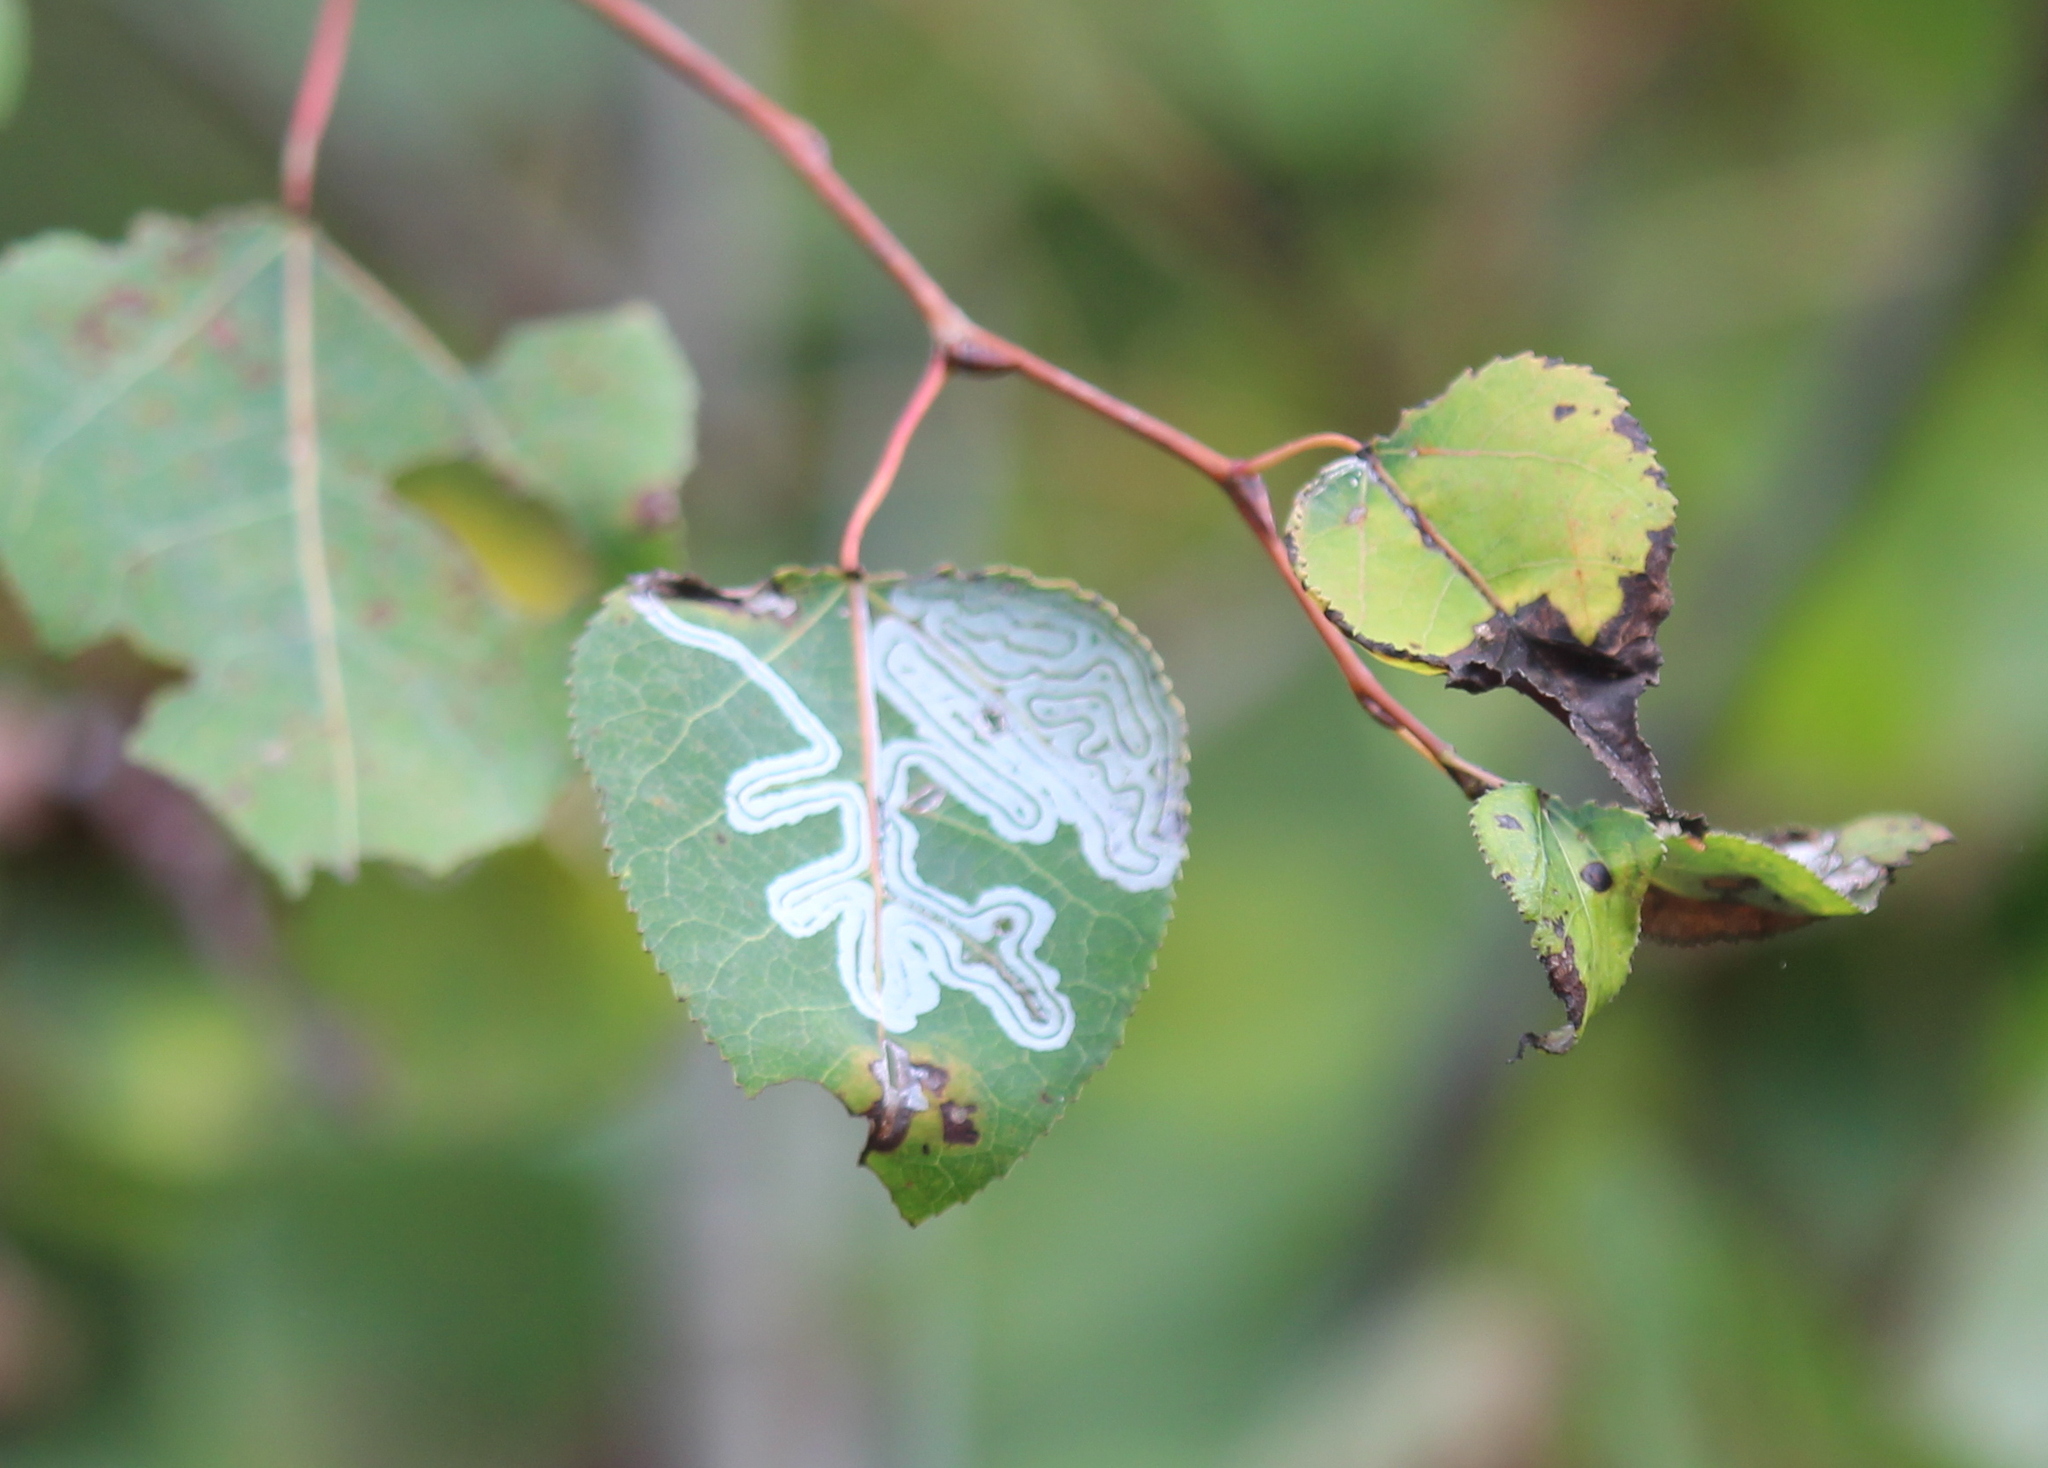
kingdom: Animalia
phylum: Arthropoda
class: Insecta
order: Lepidoptera
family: Gracillariidae
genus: Phyllocnistis
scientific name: Phyllocnistis populiella
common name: Aspen serpentine leafminer moth
